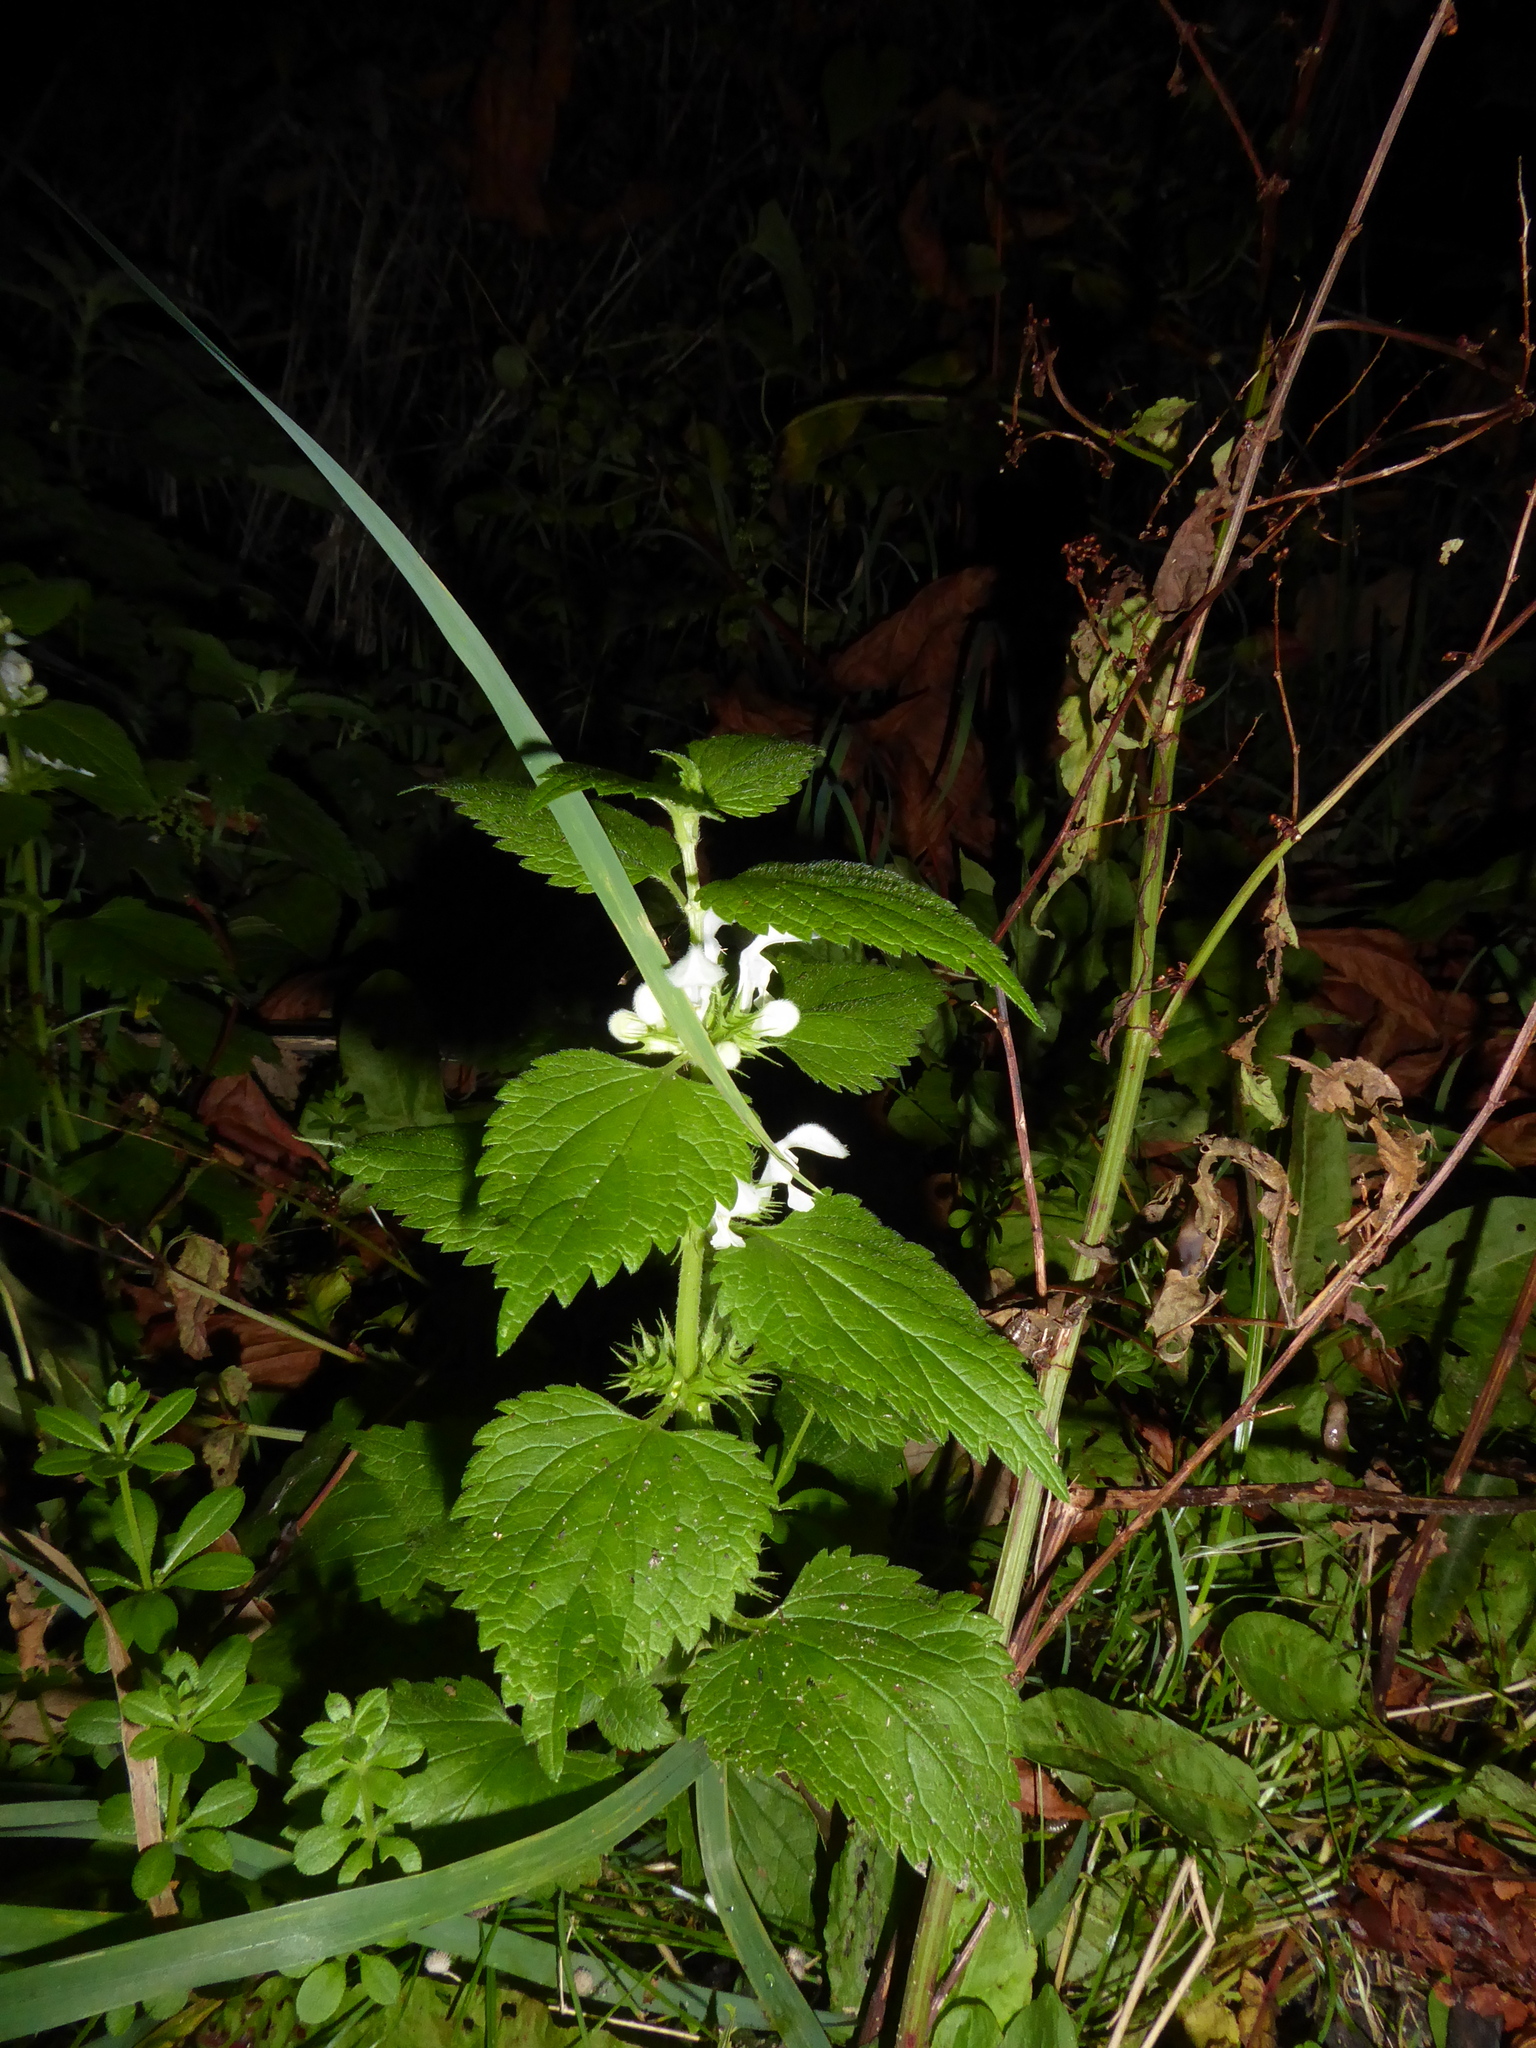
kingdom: Plantae
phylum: Tracheophyta
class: Magnoliopsida
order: Lamiales
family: Lamiaceae
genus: Lamium
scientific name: Lamium album
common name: White dead-nettle
